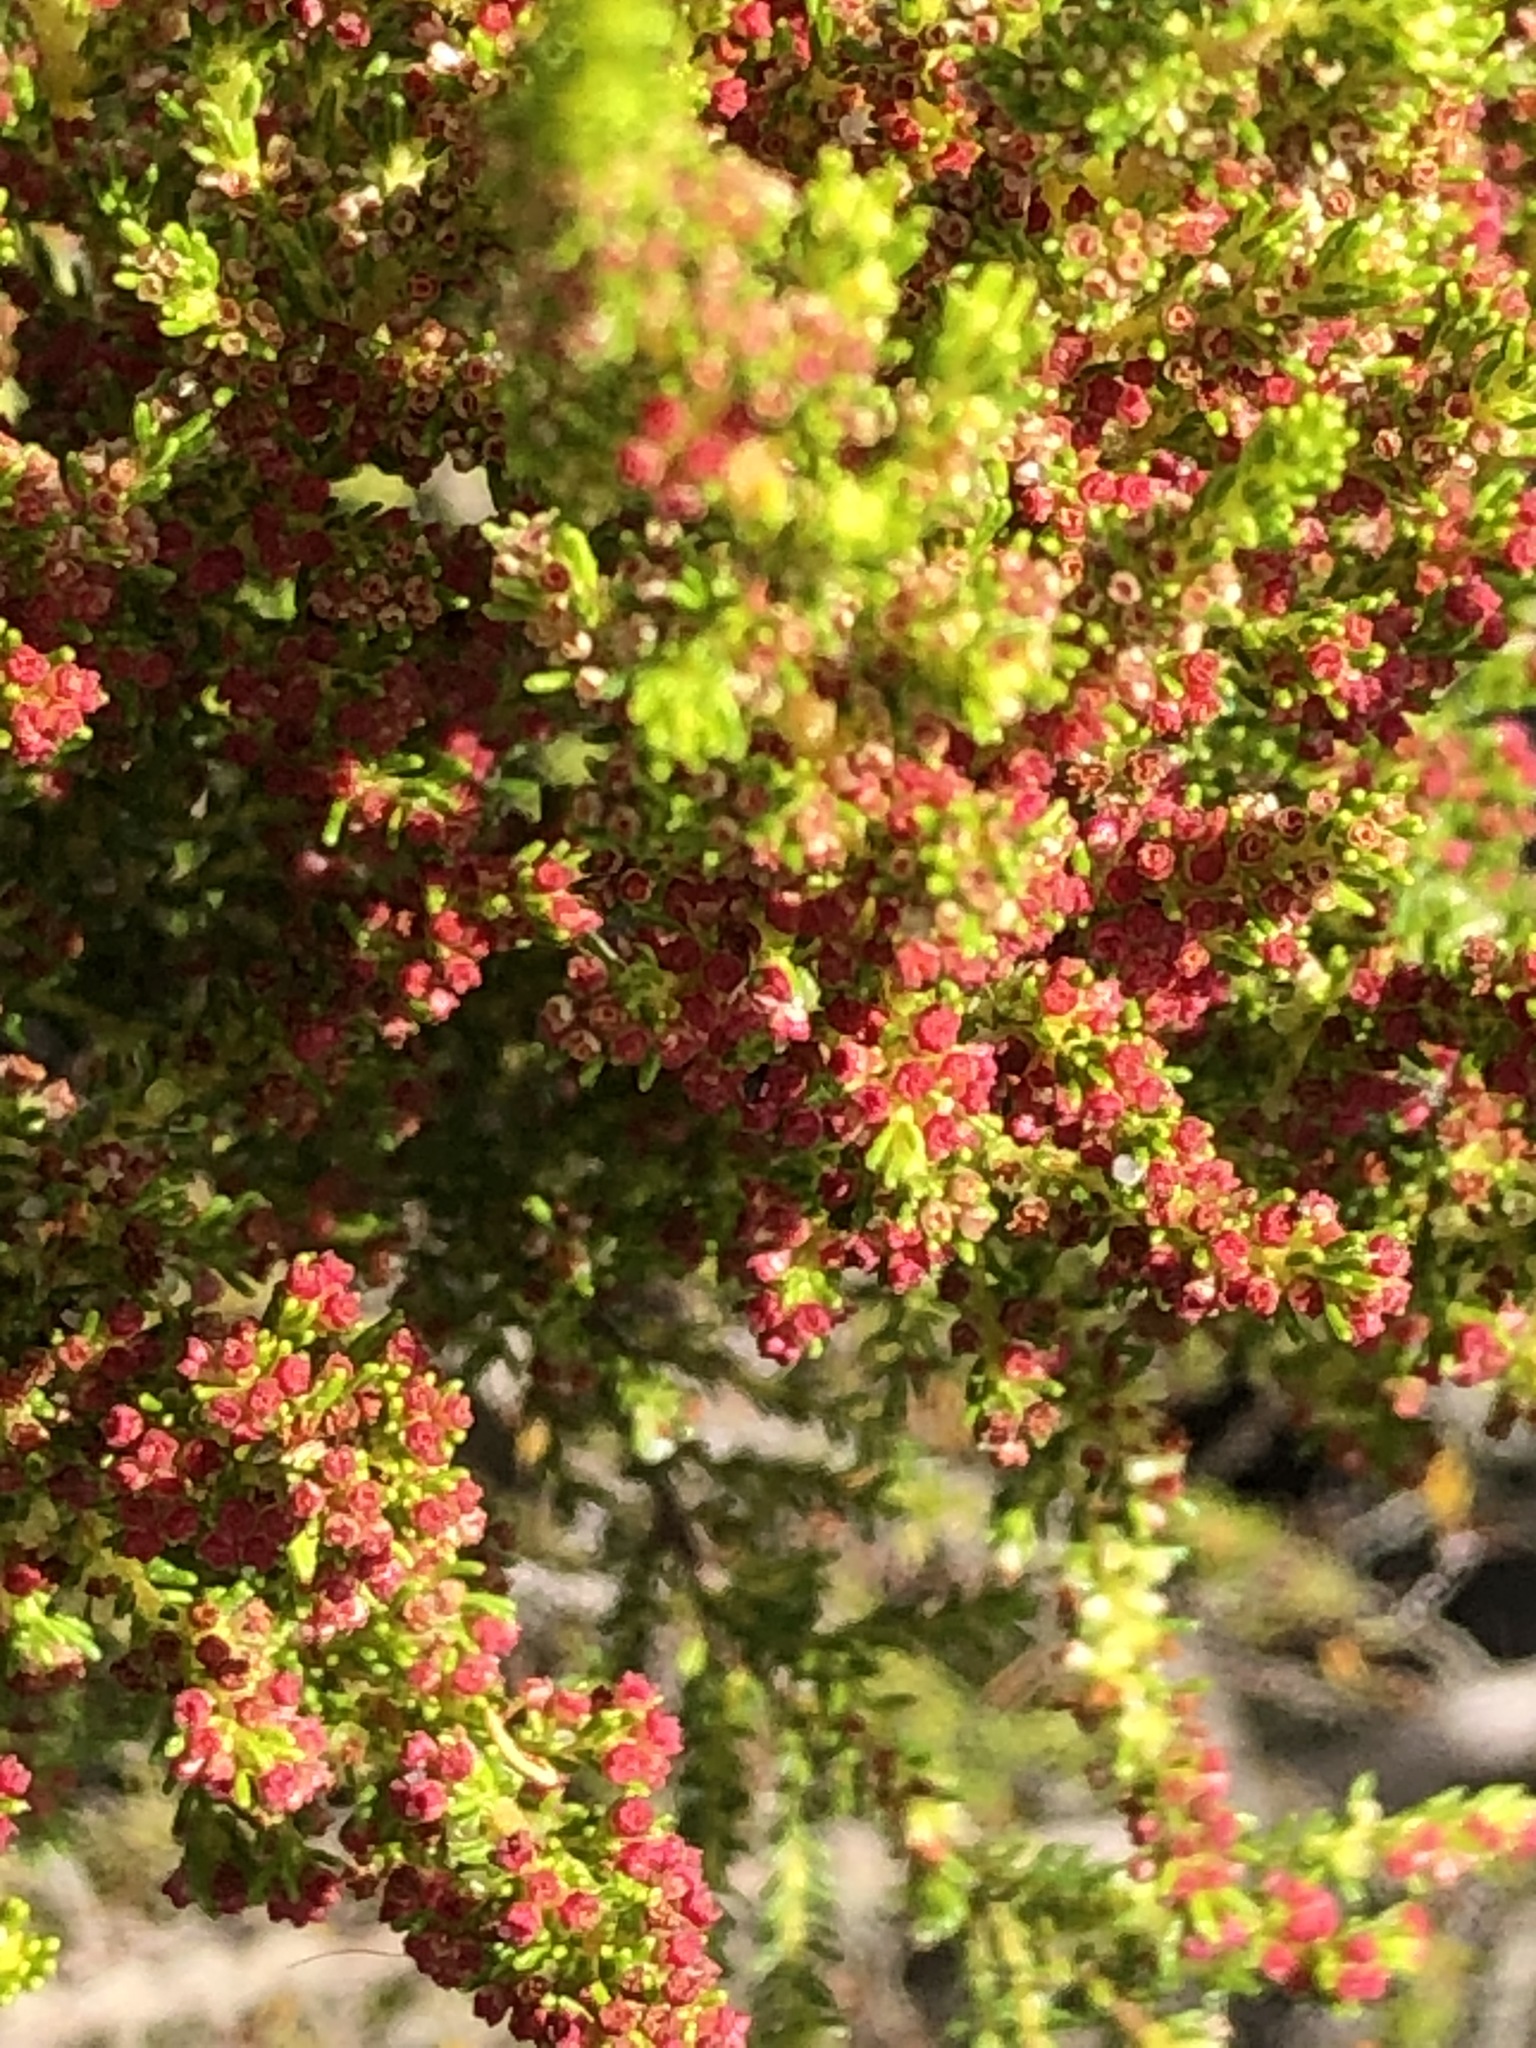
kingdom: Plantae
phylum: Tracheophyta
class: Magnoliopsida
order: Ericales
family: Ericaceae
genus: Erica
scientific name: Erica muscosa
